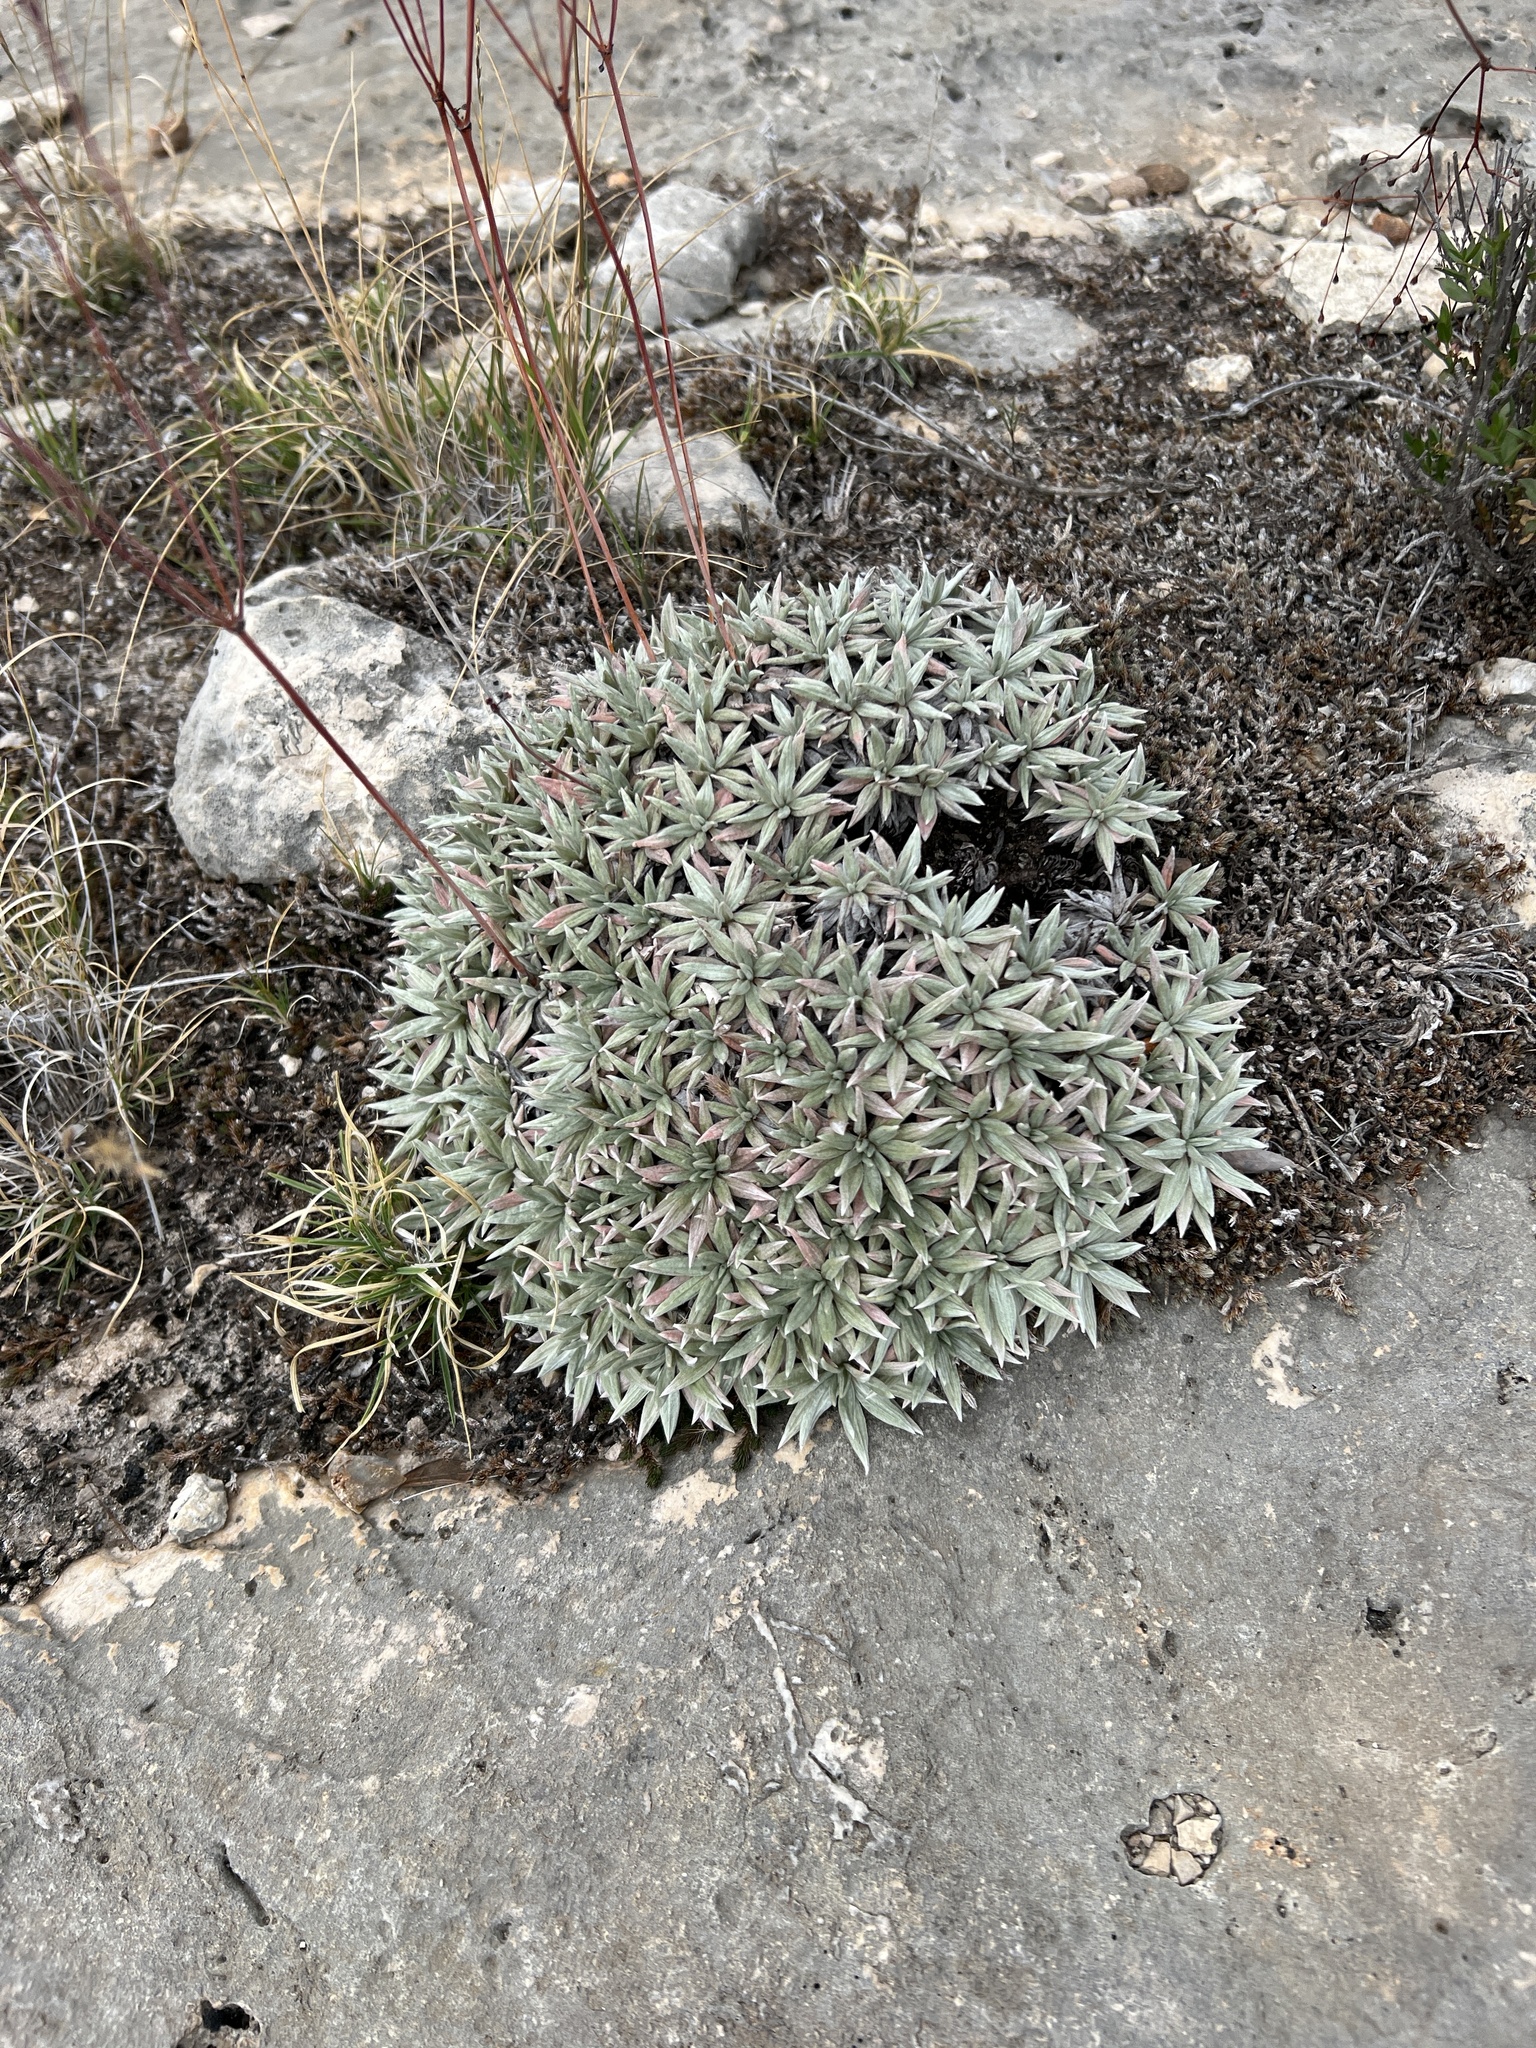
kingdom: Plantae
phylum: Tracheophyta
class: Magnoliopsida
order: Caryophyllales
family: Polygonaceae
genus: Eriogonum
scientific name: Eriogonum havardii
